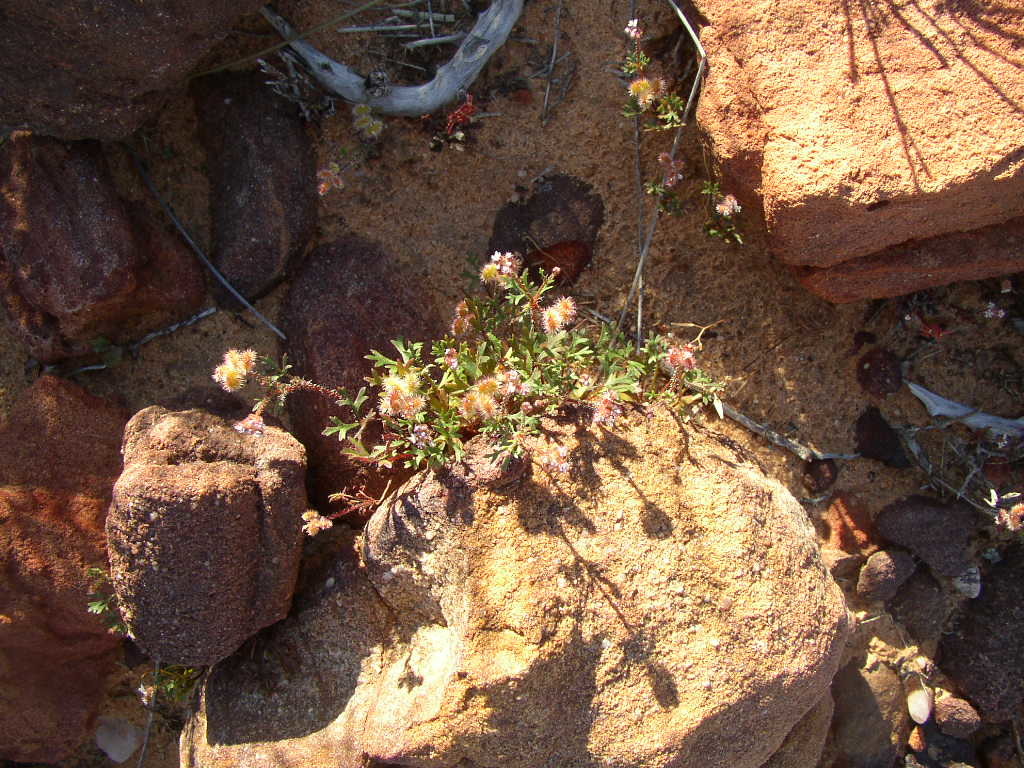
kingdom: Plantae
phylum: Tracheophyta
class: Magnoliopsida
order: Apiales
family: Araliaceae
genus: Trachymene
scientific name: Trachymene cyanopetala
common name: Purple trachymene
